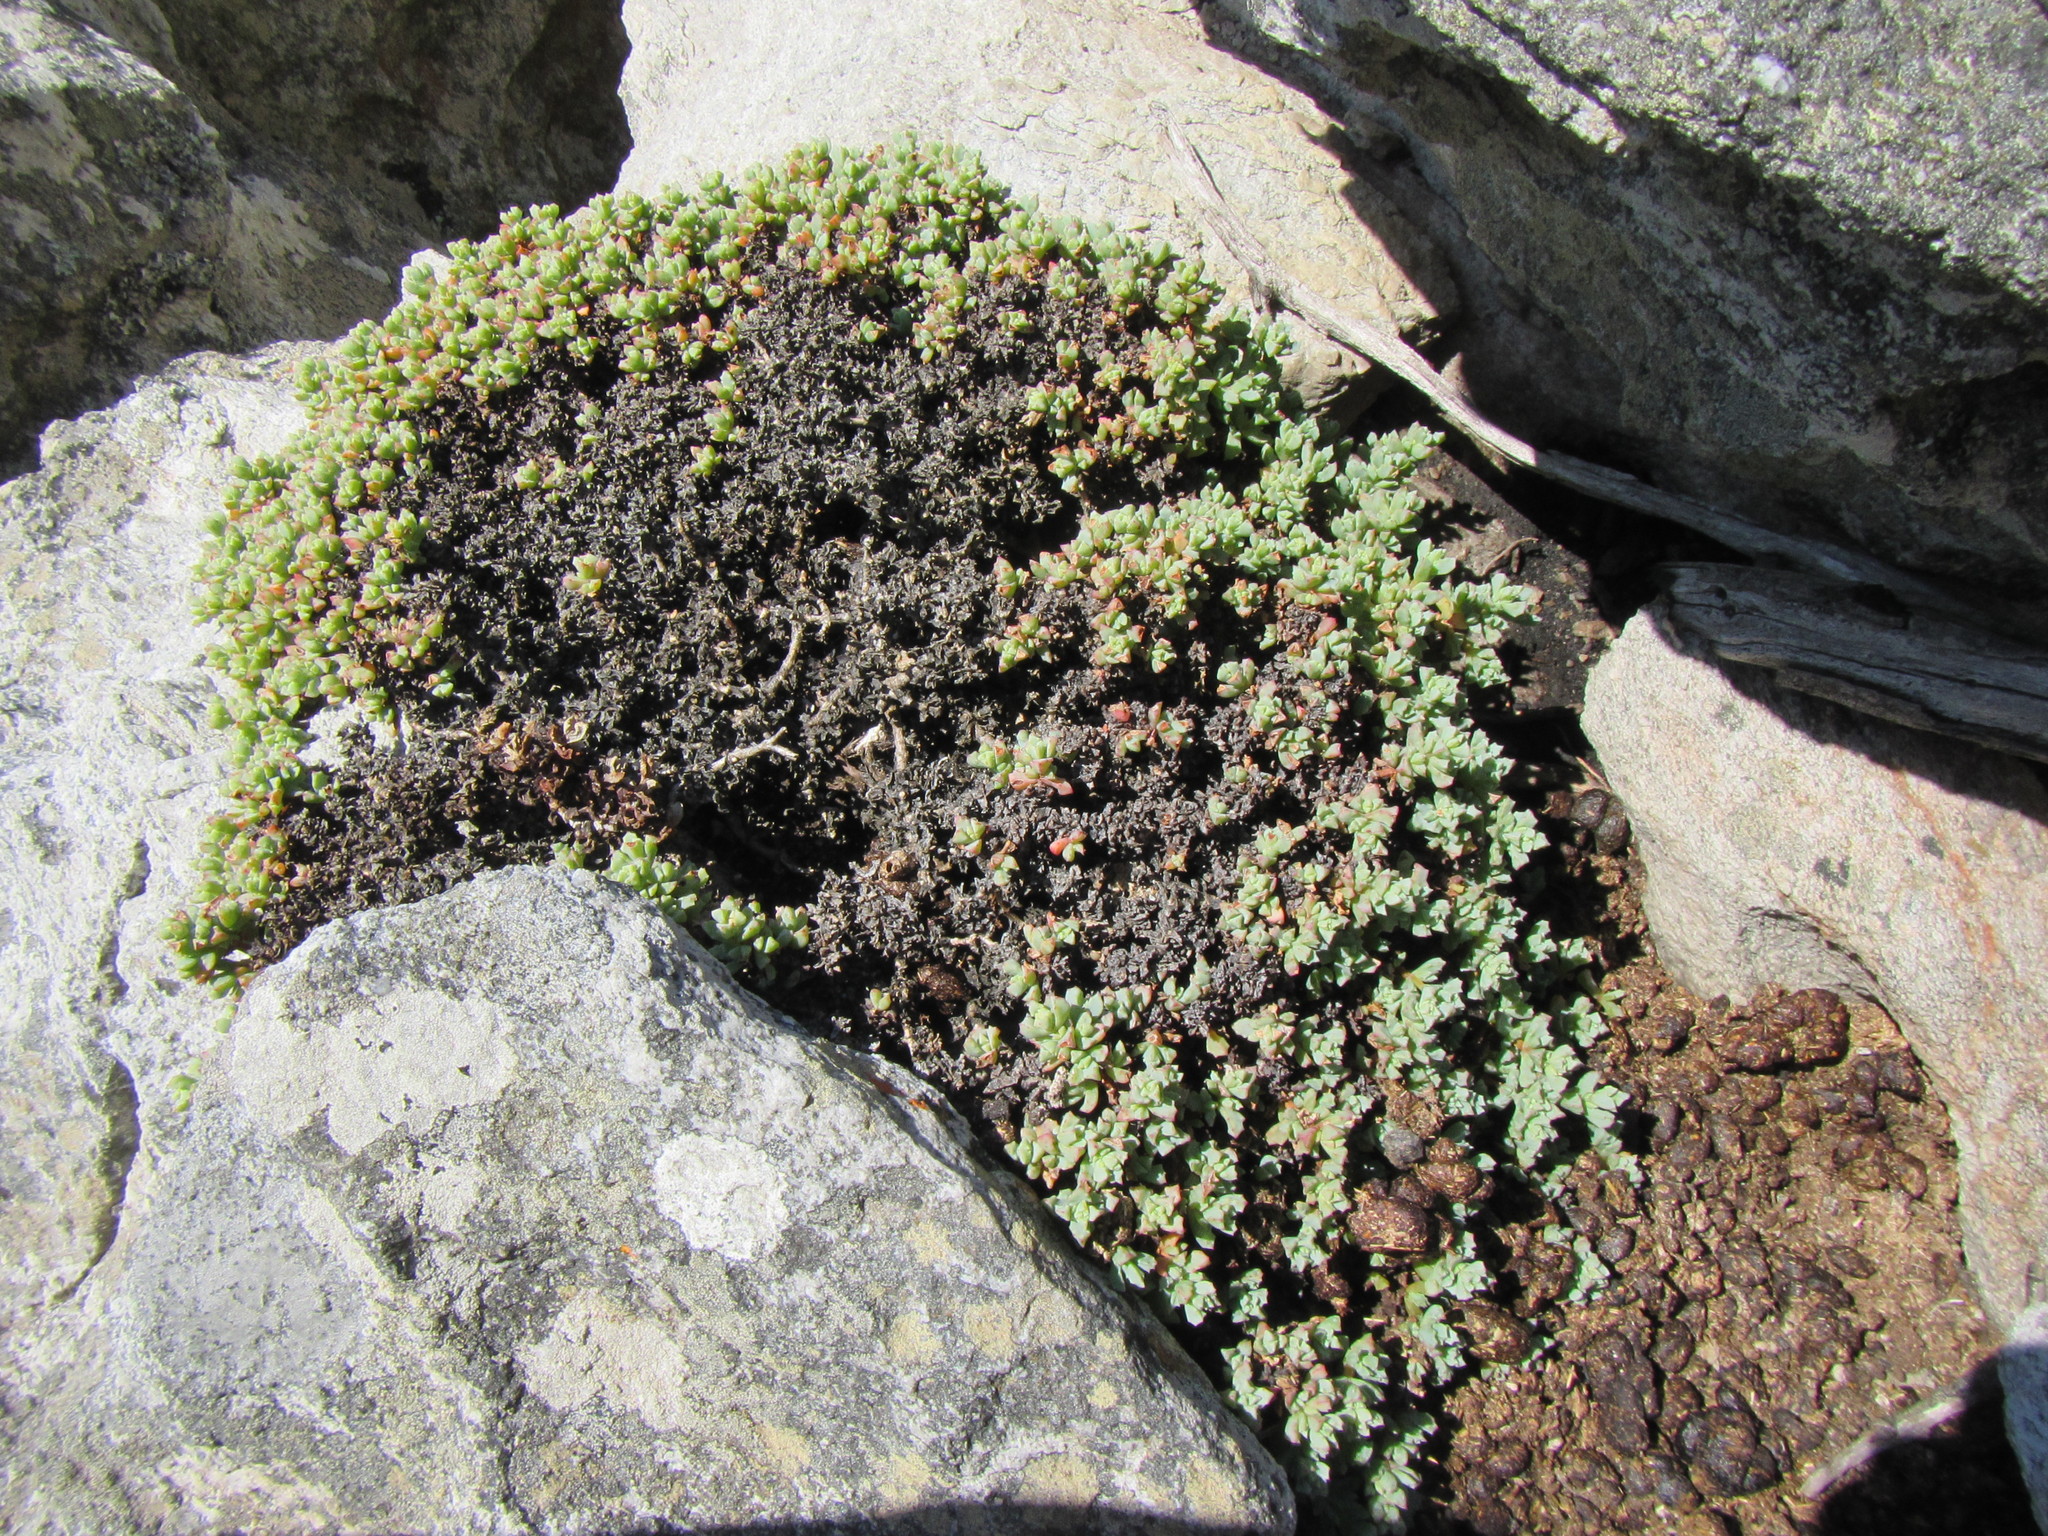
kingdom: Plantae
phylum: Tracheophyta
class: Magnoliopsida
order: Caryophyllales
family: Aizoaceae
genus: Oscularia
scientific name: Oscularia deltoides
